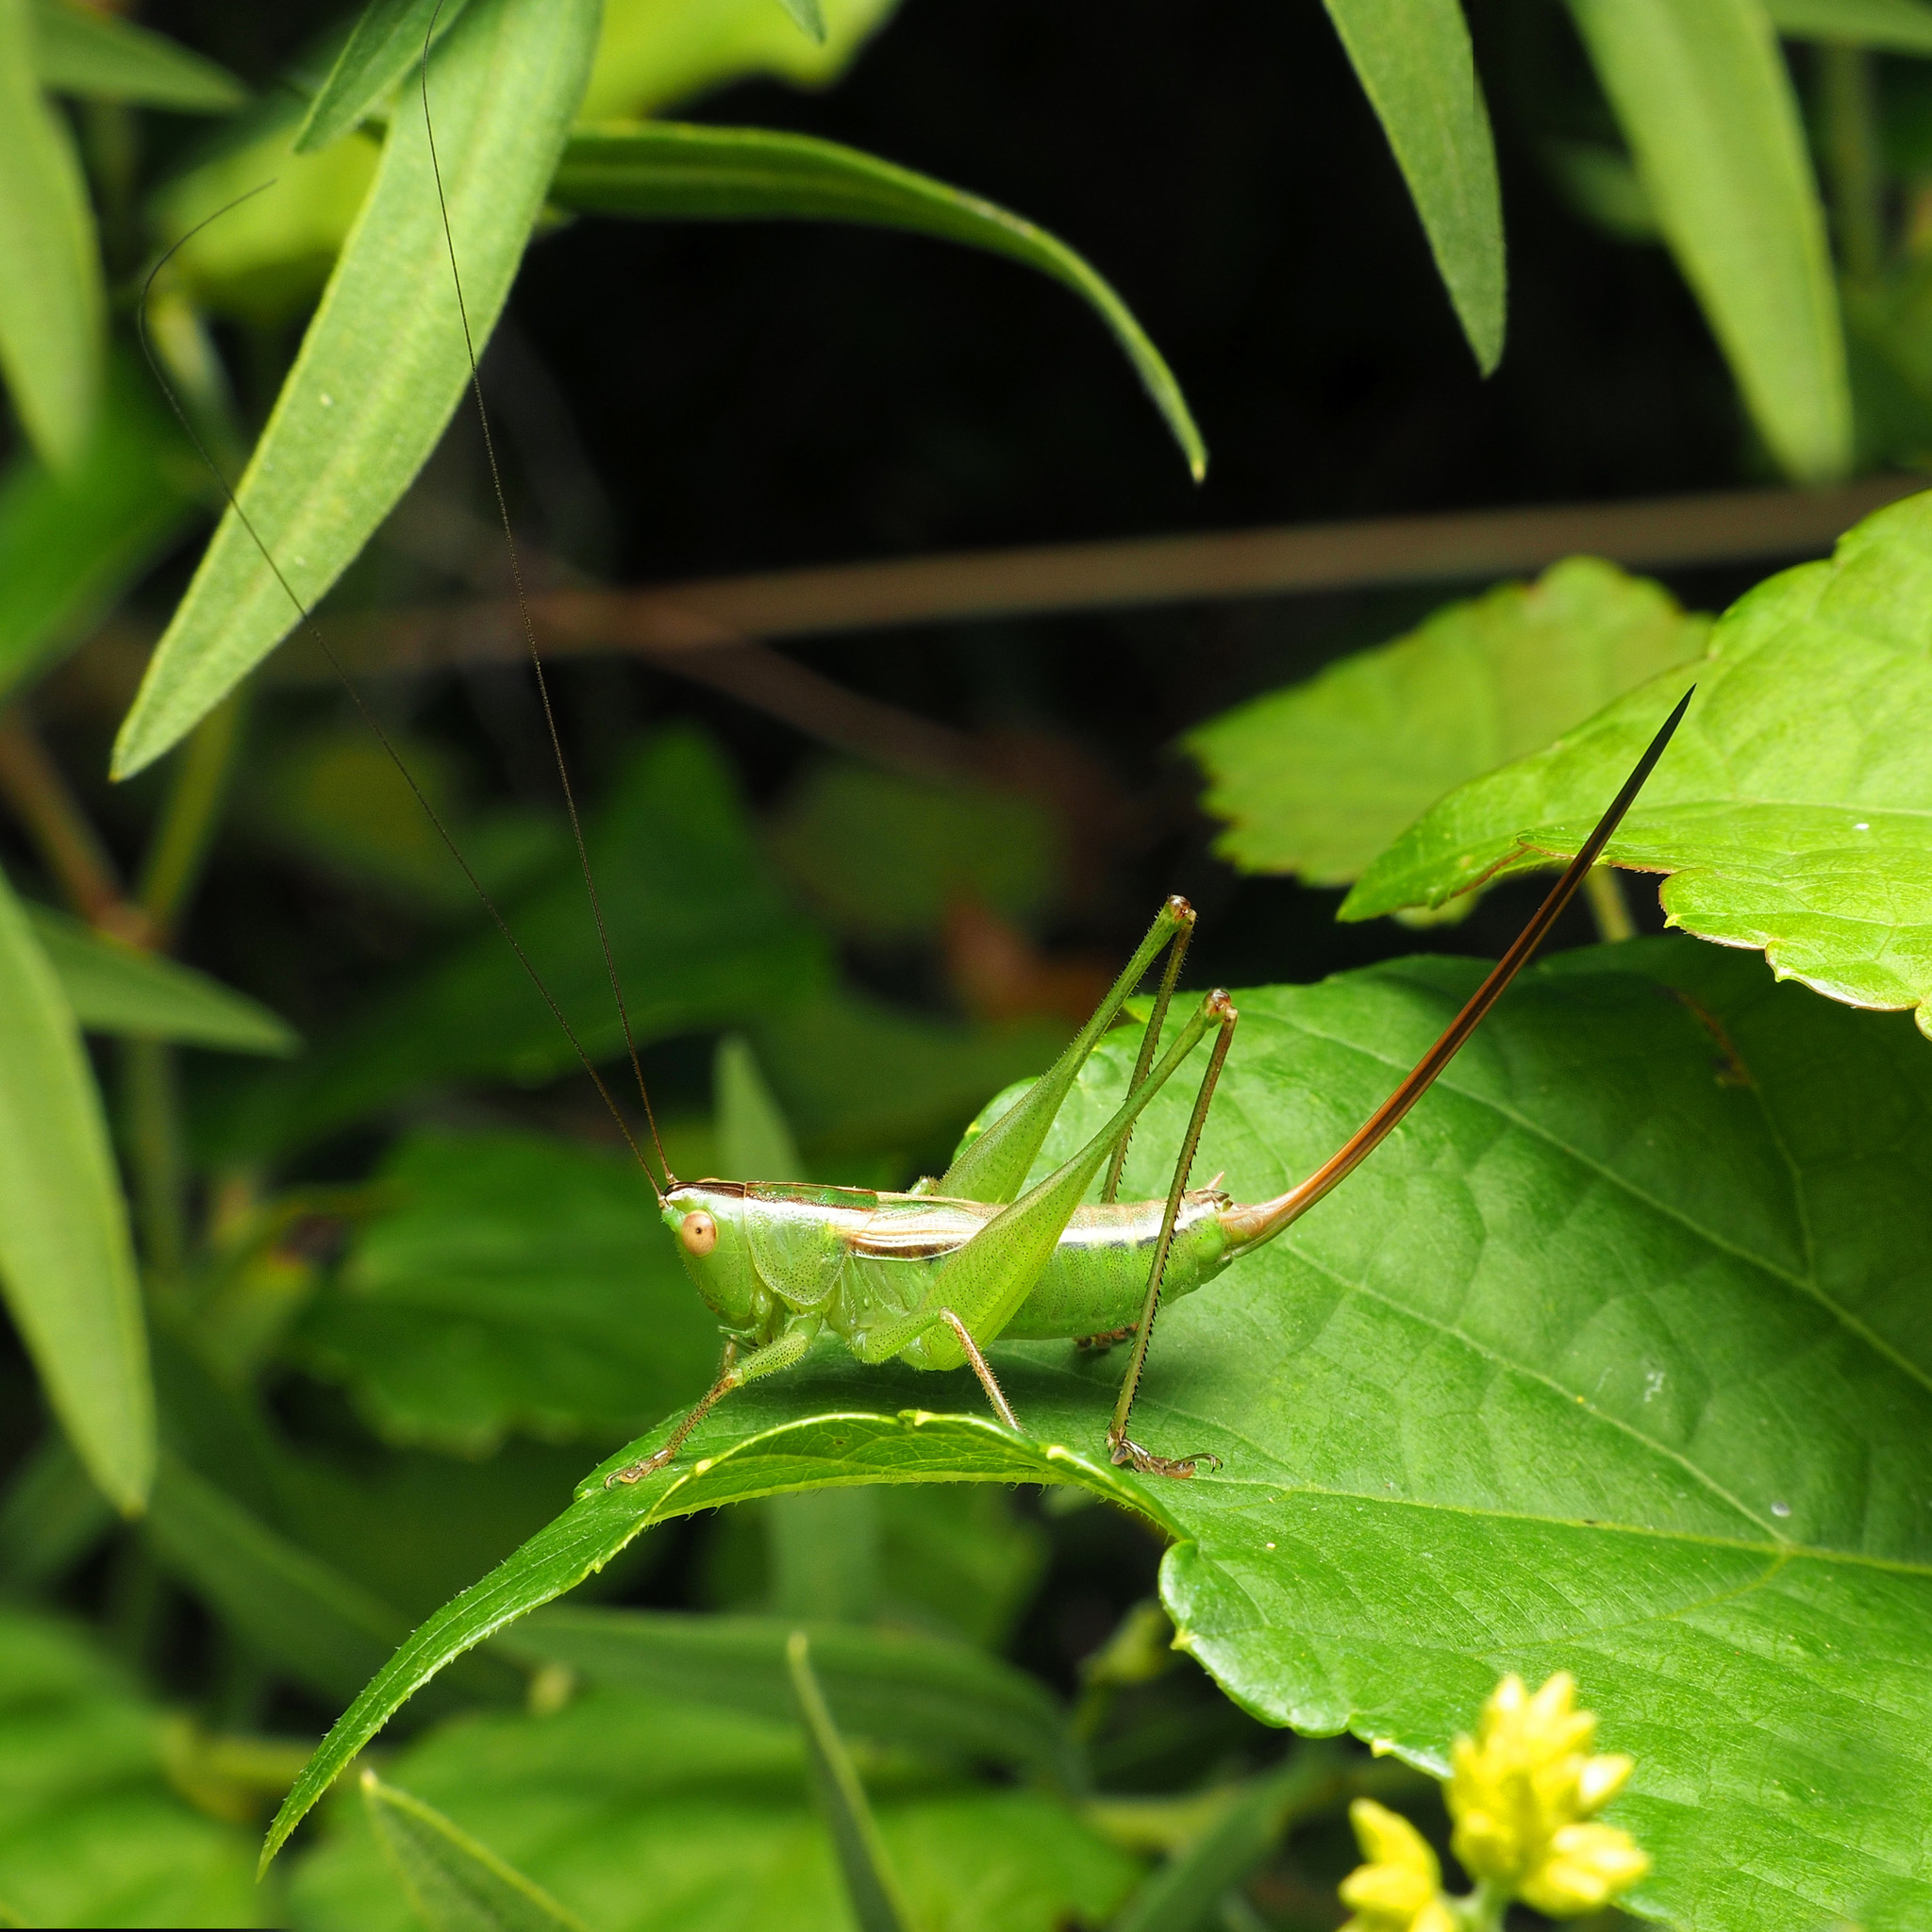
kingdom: Animalia
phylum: Arthropoda
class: Insecta
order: Orthoptera
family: Tettigoniidae
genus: Conocephalus
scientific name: Conocephalus strictus
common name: Straight-lanced katydid
